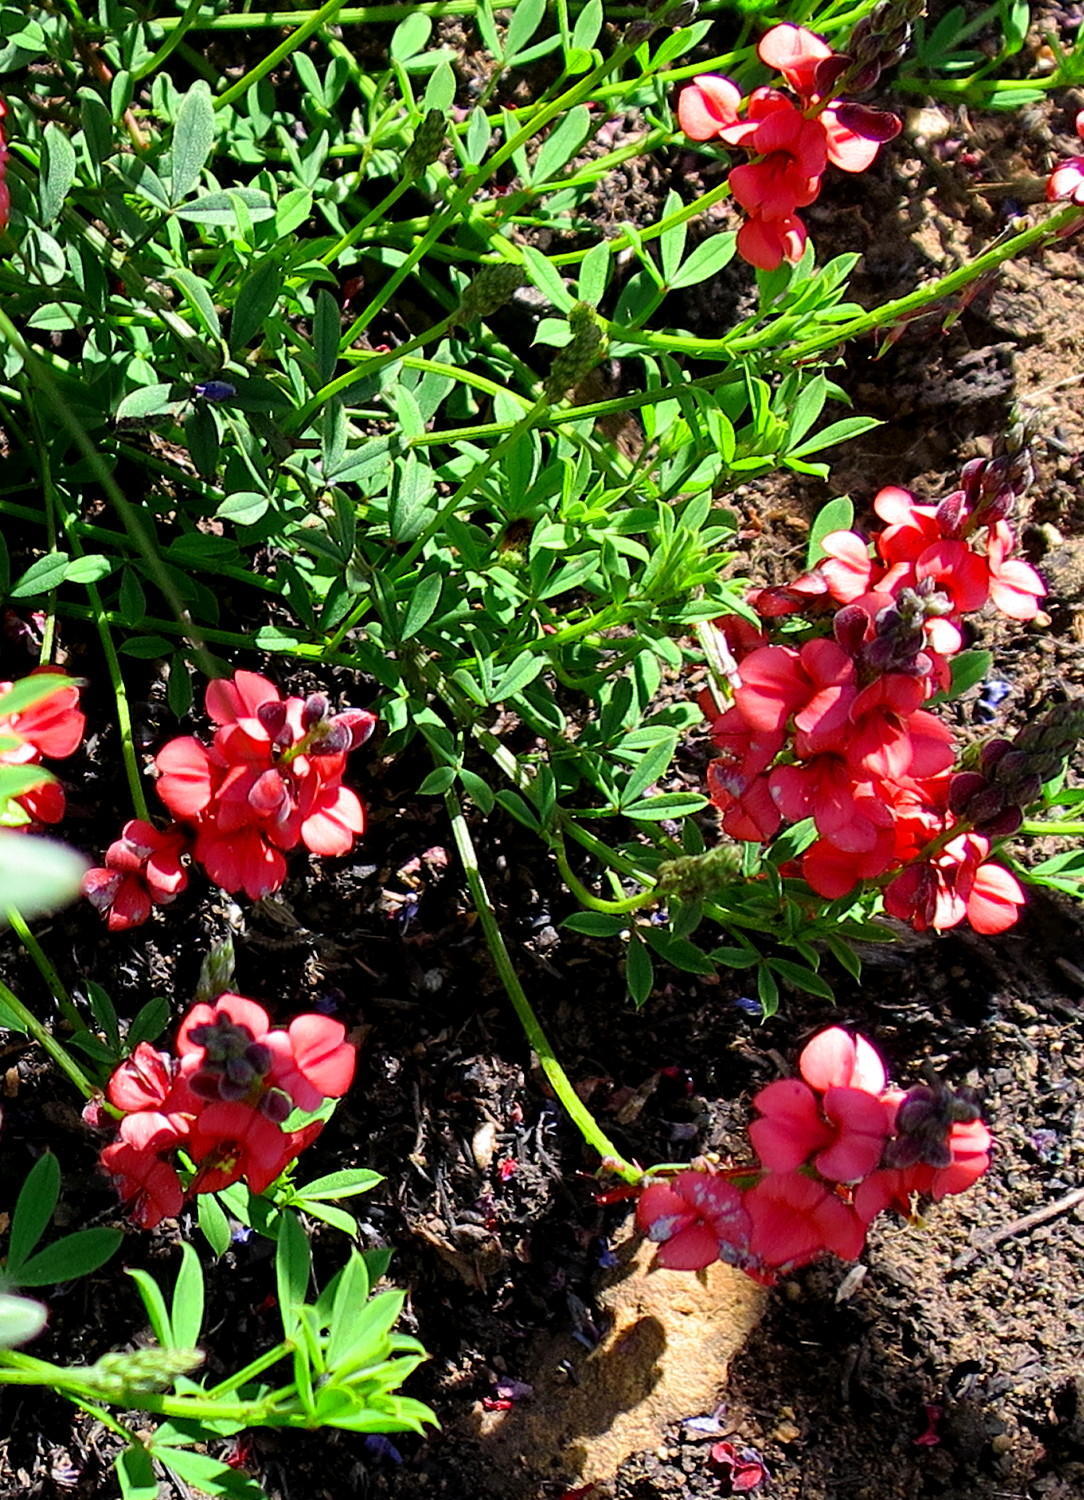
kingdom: Plantae
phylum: Tracheophyta
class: Magnoliopsida
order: Fabales
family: Fabaceae
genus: Indigofera
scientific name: Indigofera heterophylla
